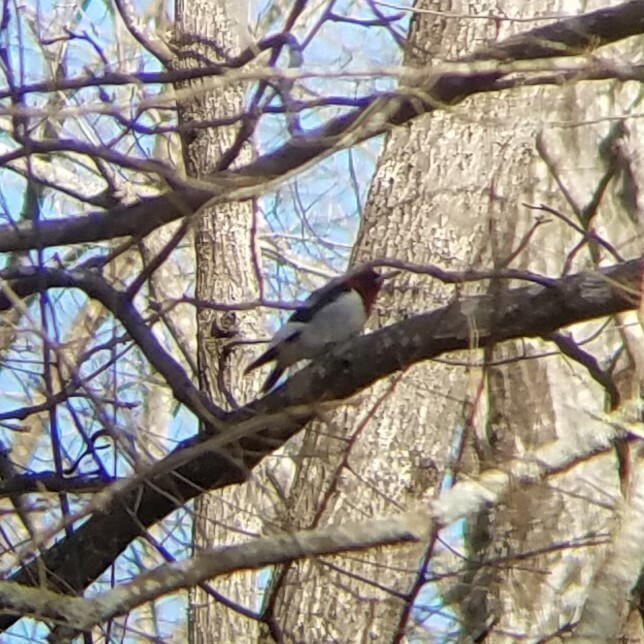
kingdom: Animalia
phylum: Chordata
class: Aves
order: Piciformes
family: Picidae
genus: Melanerpes
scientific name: Melanerpes erythrocephalus
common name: Red-headed woodpecker
